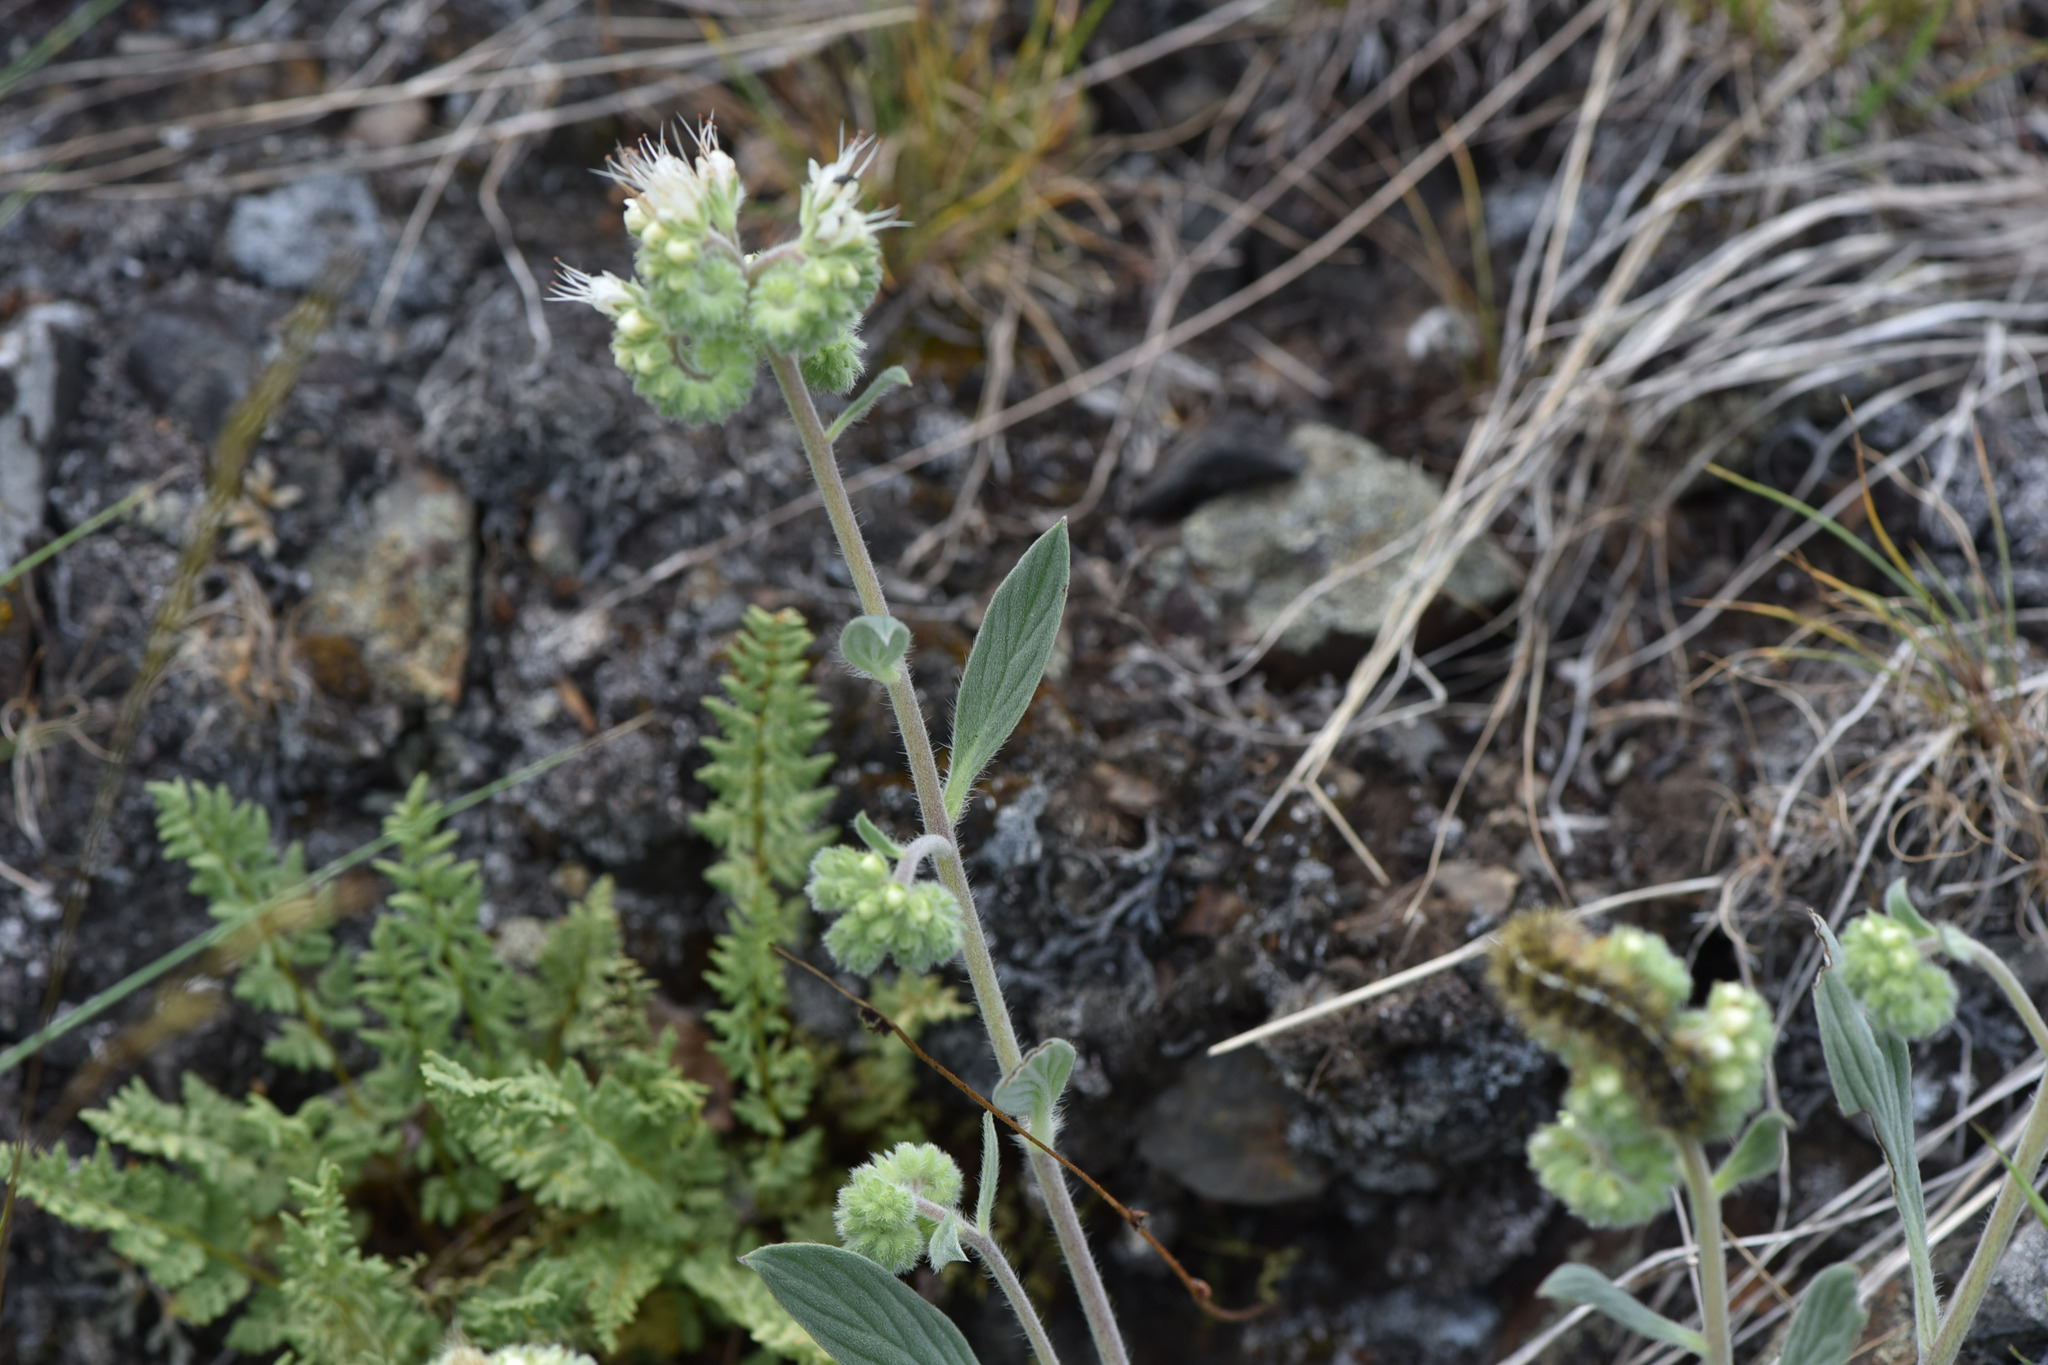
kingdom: Plantae
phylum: Tracheophyta
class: Magnoliopsida
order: Boraginales
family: Hydrophyllaceae
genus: Phacelia
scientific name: Phacelia hastata
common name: Silver-leaved phacelia
